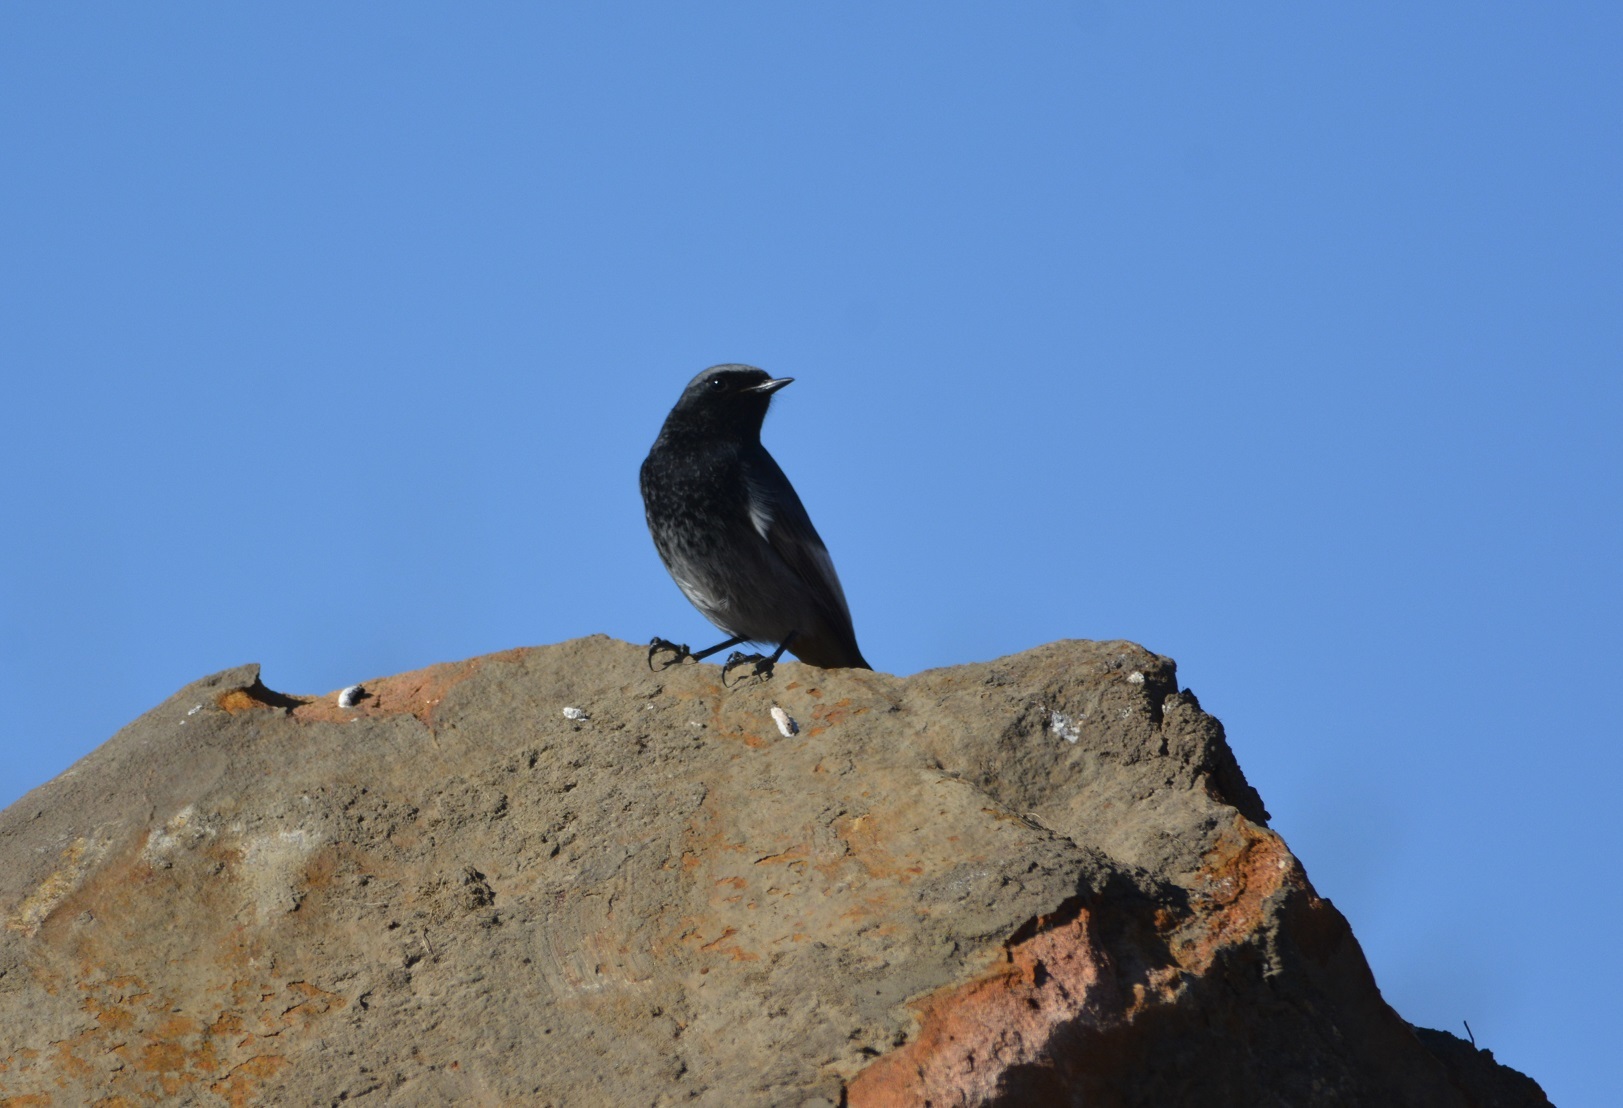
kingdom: Animalia
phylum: Chordata
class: Aves
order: Passeriformes
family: Muscicapidae
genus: Phoenicurus
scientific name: Phoenicurus ochruros
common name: Black redstart
